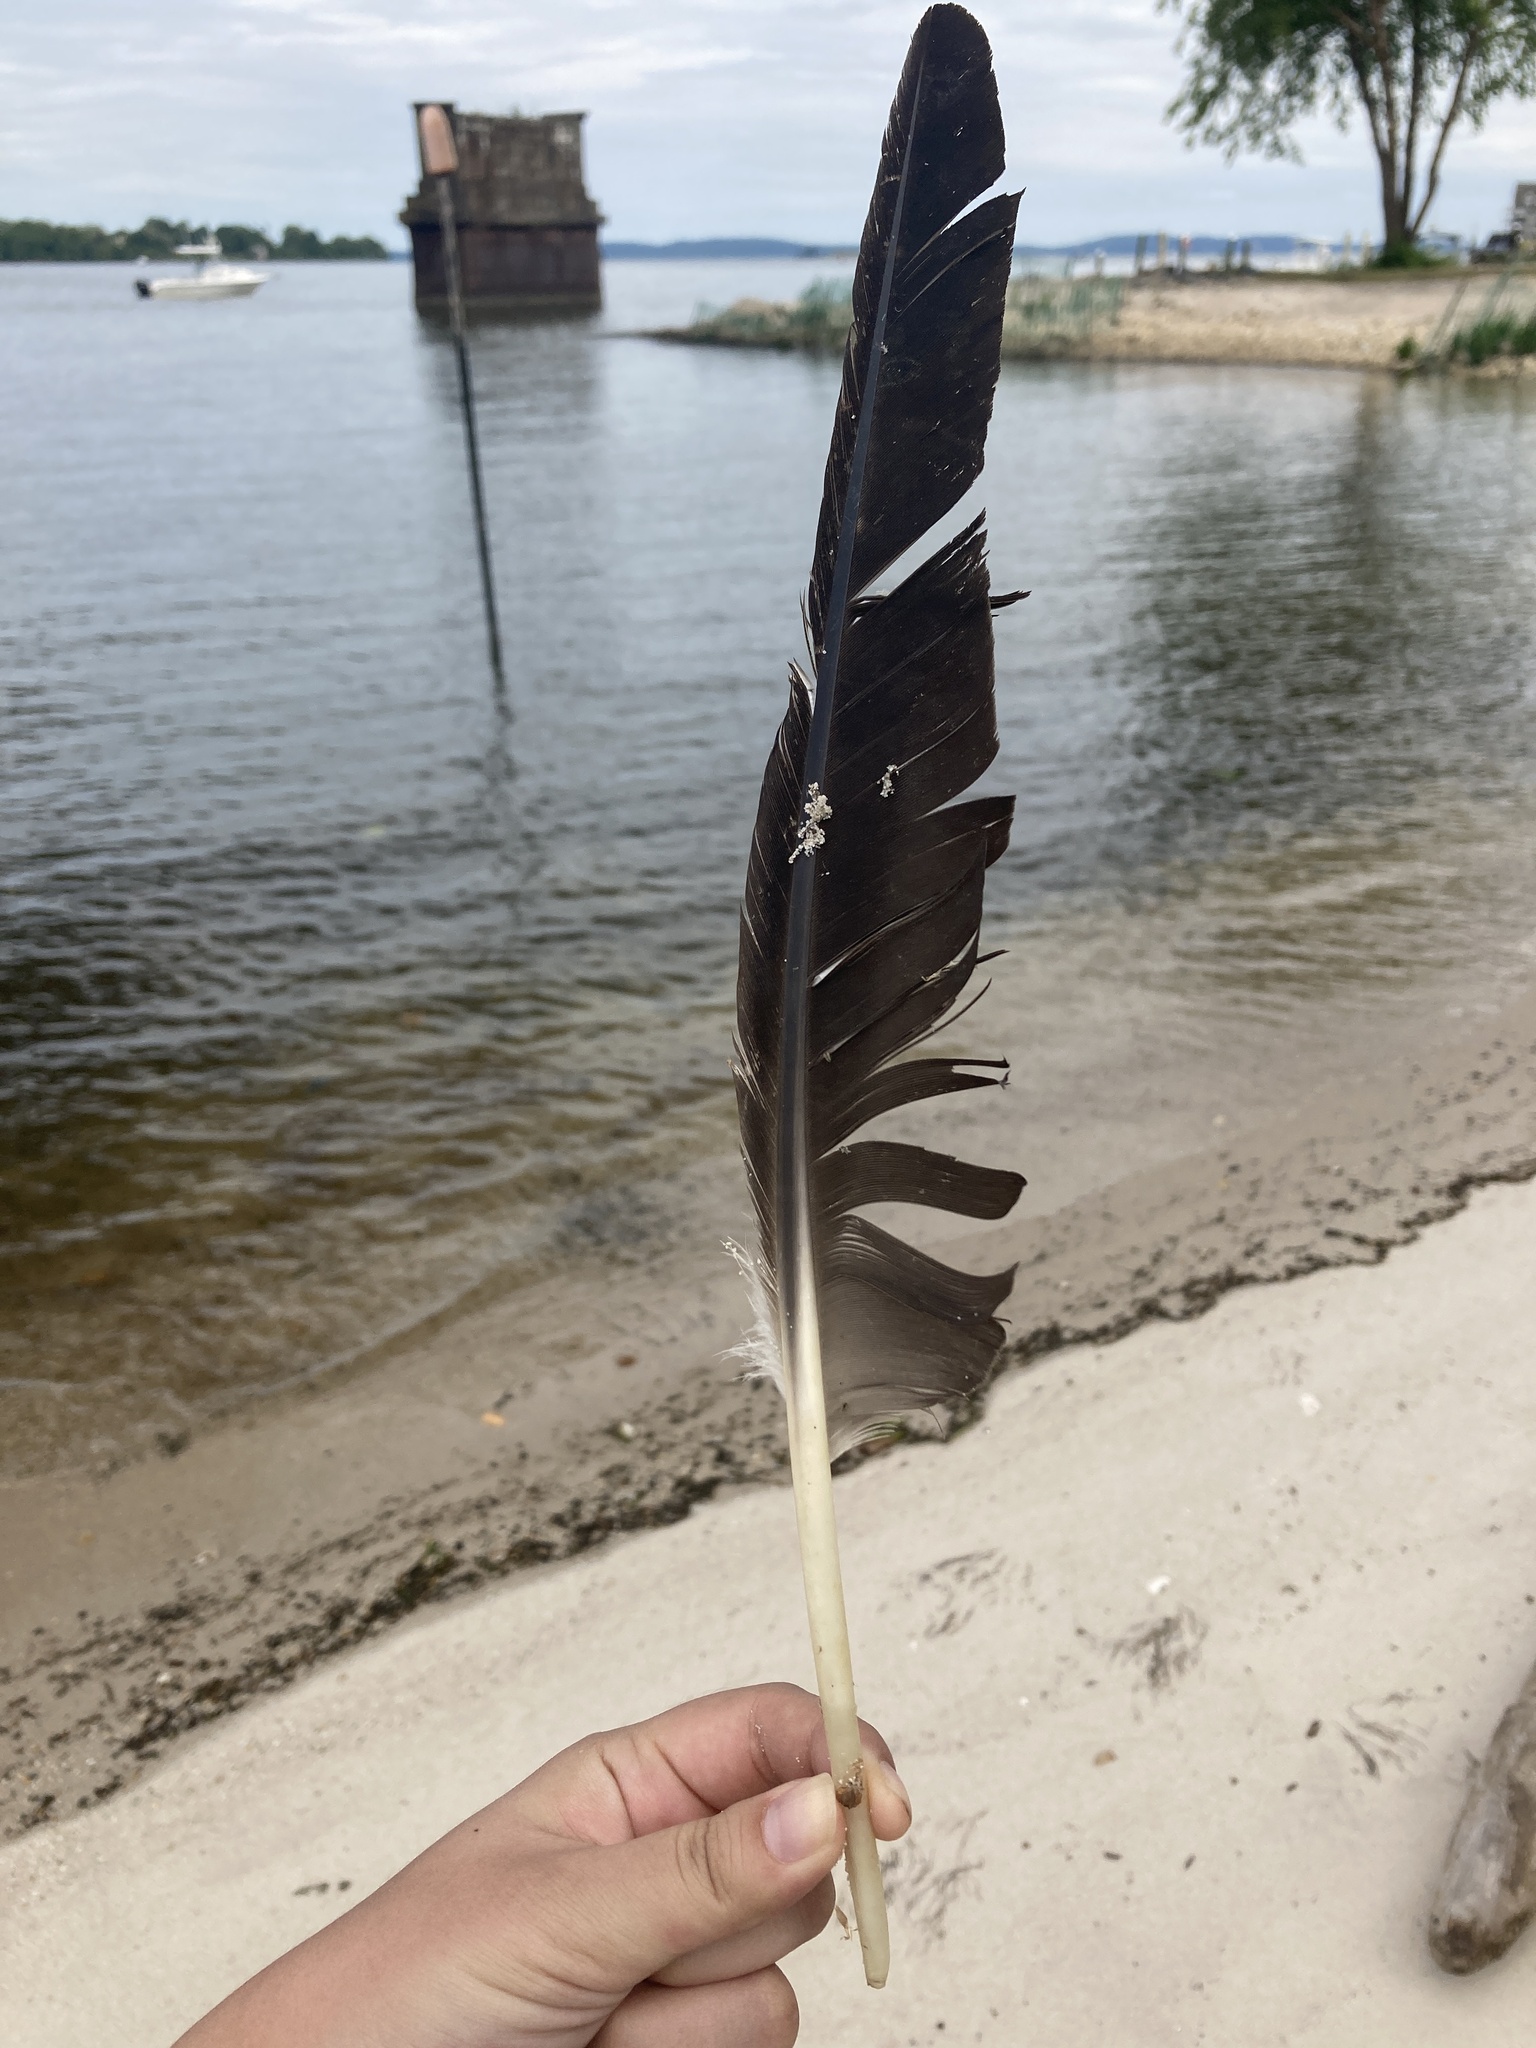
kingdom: Animalia
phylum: Chordata
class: Aves
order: Anseriformes
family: Anatidae
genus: Branta
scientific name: Branta canadensis
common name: Canada goose
